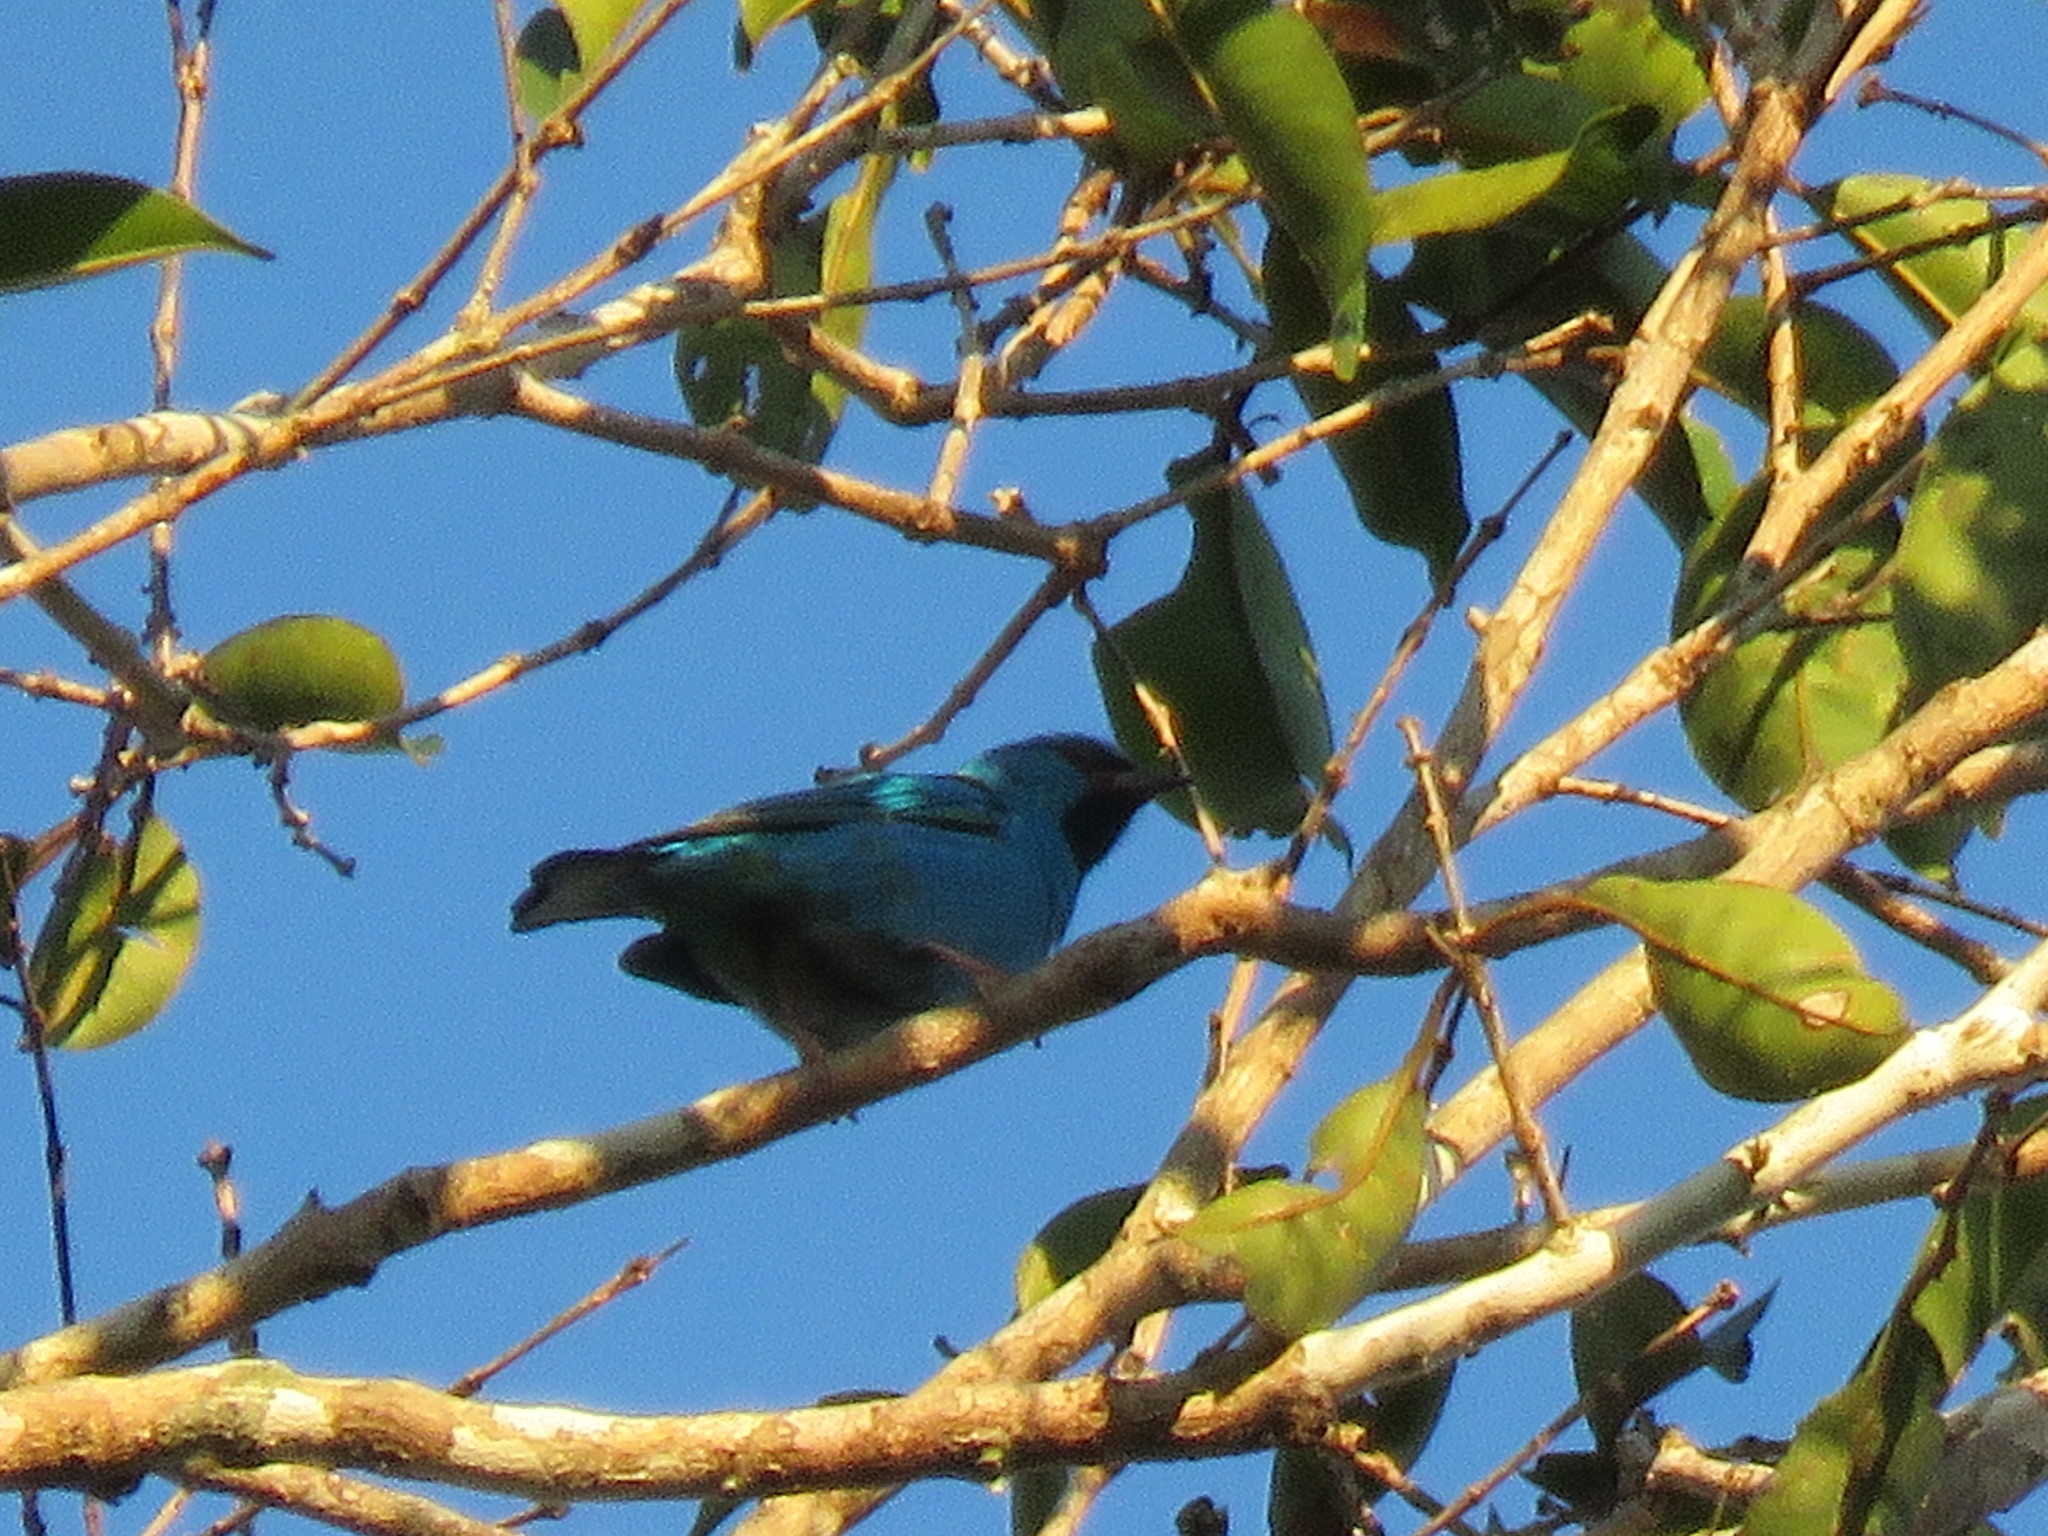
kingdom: Animalia
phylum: Chordata
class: Aves
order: Passeriformes
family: Thraupidae
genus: Dacnis
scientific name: Dacnis cayana
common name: Blue dacnis
